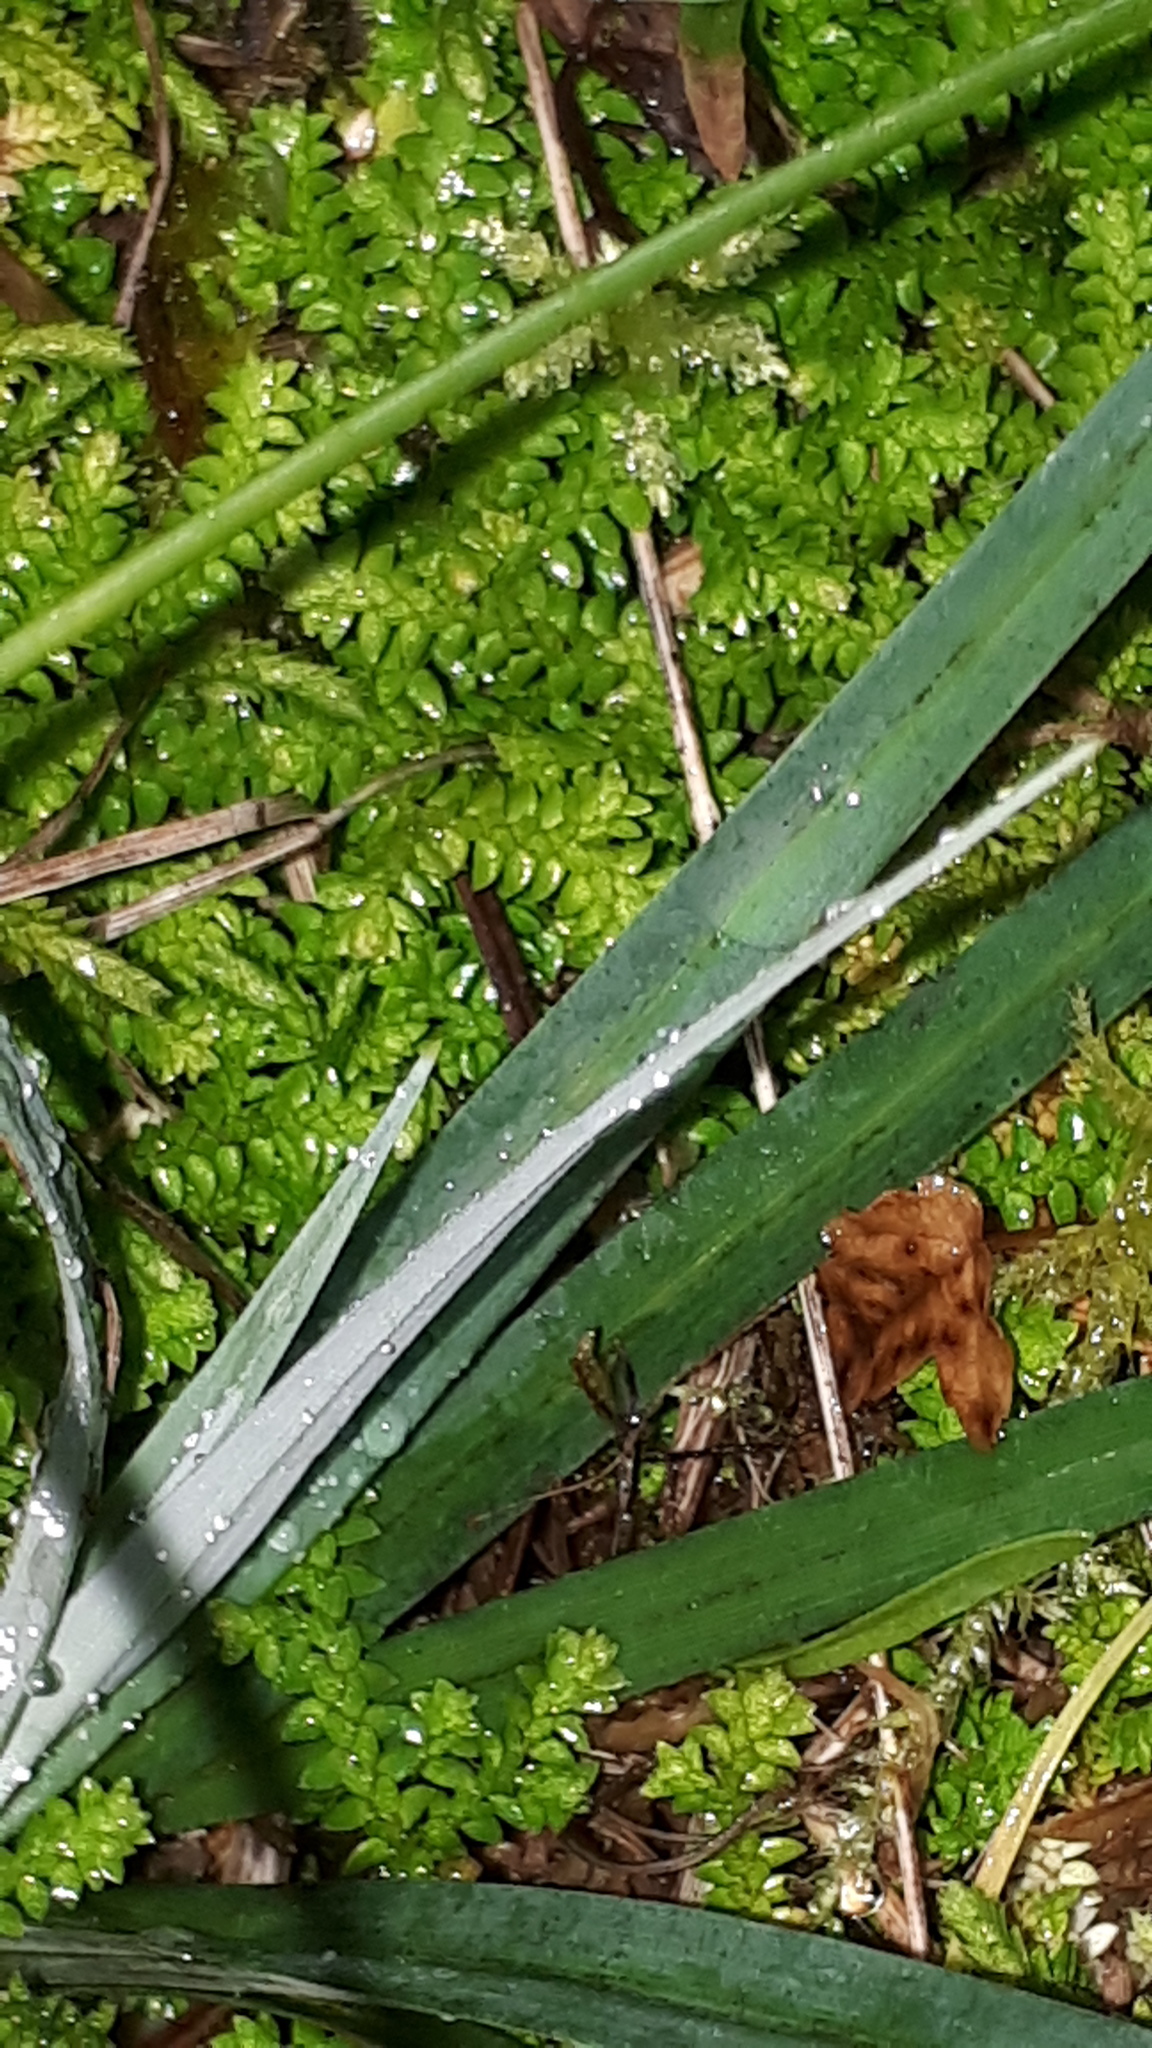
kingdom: Plantae
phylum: Tracheophyta
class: Lycopodiopsida
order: Selaginellales
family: Selaginellaceae
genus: Selaginella
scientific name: Selaginella helvetica
